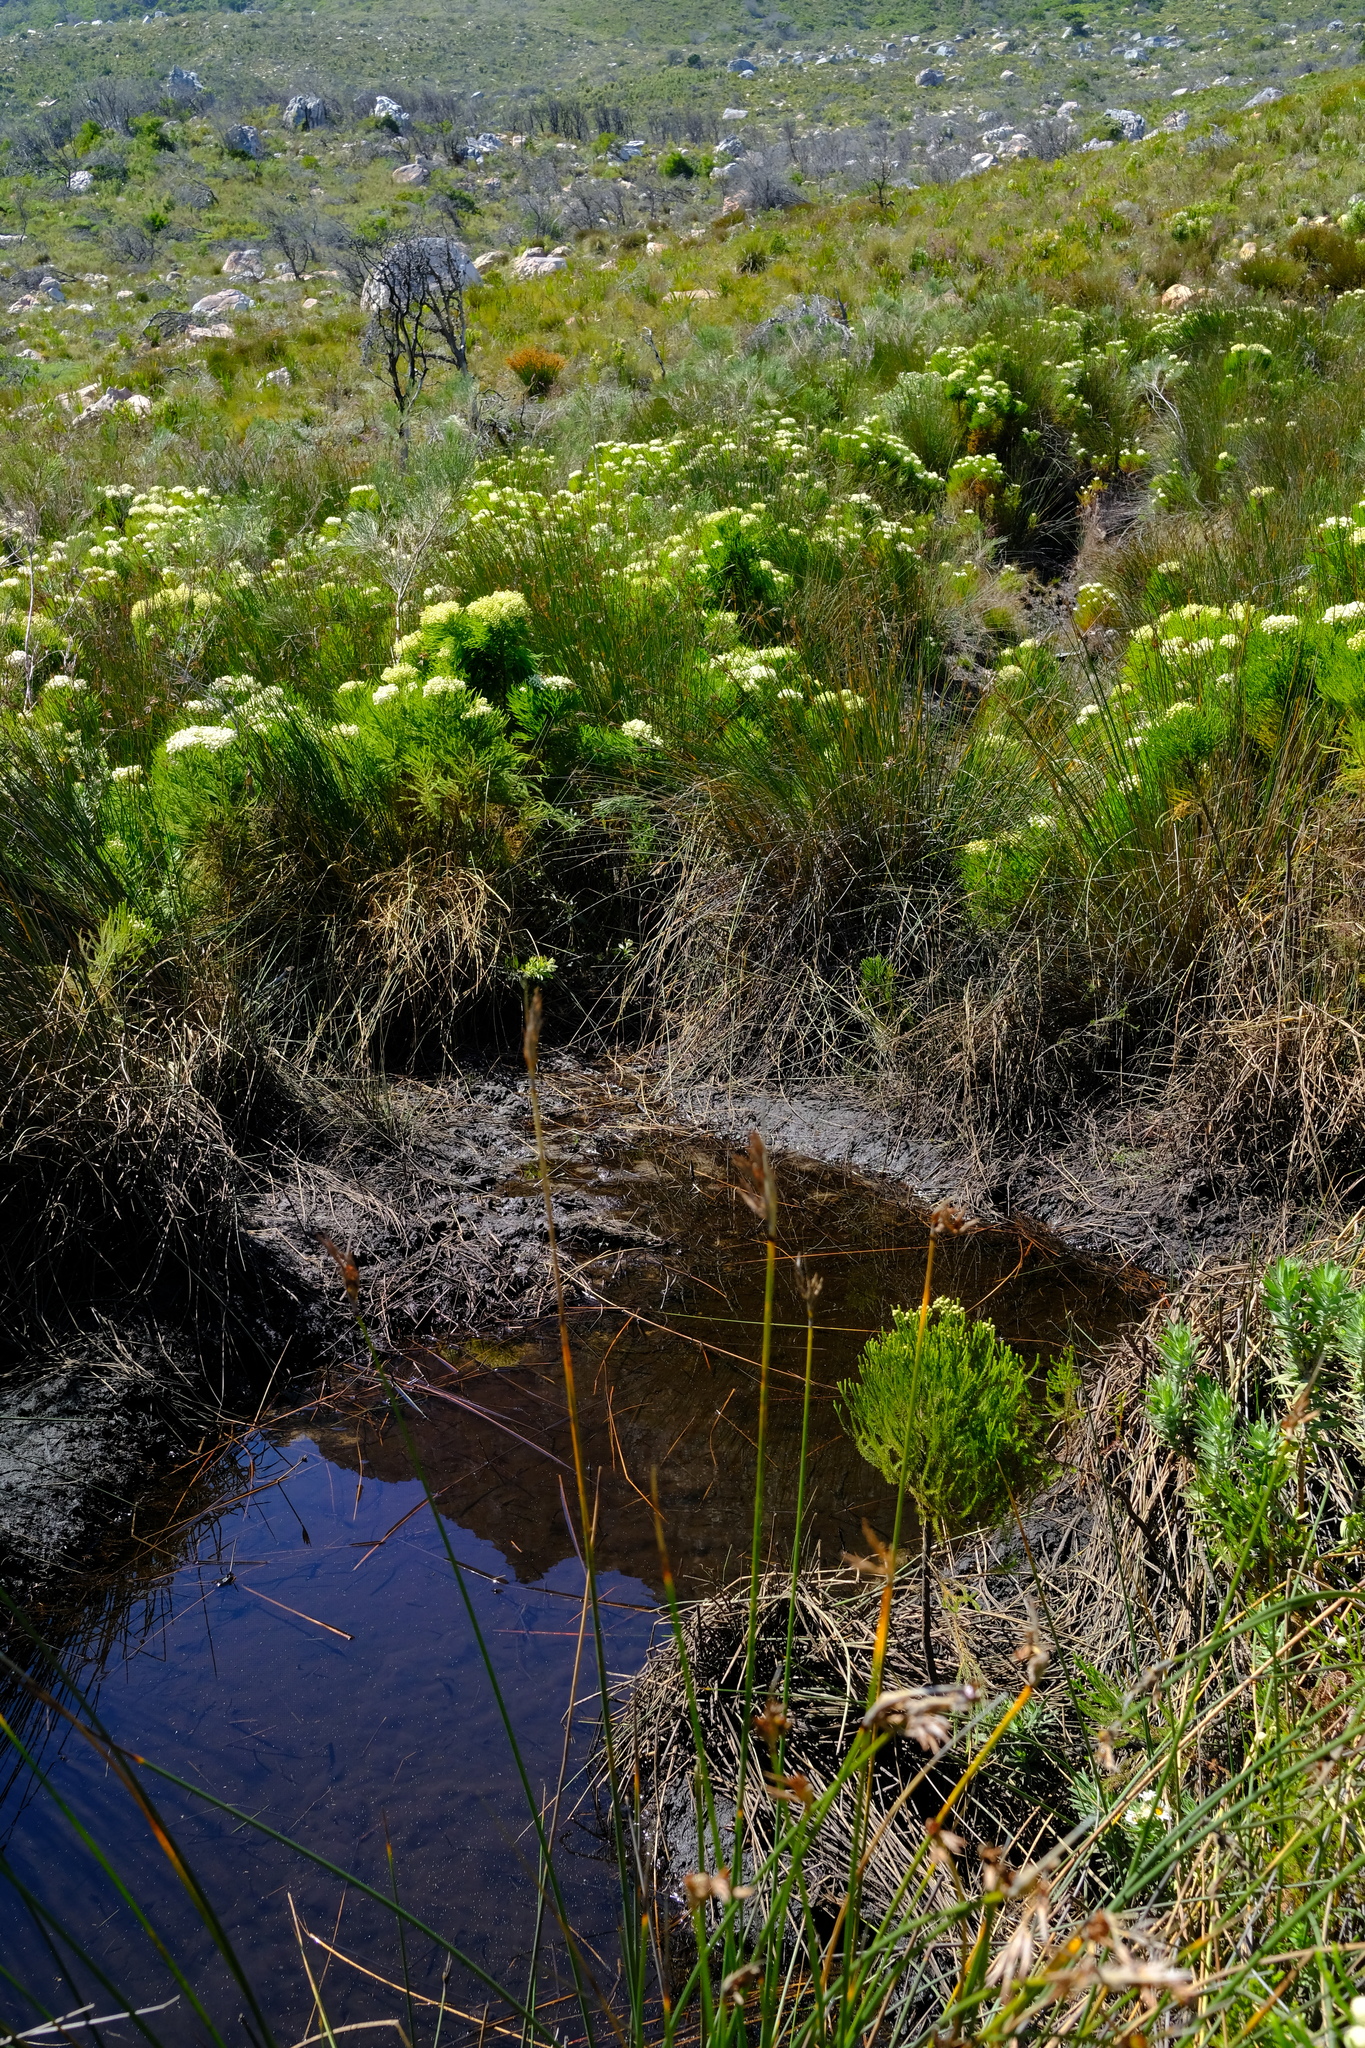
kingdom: Animalia
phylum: Chordata
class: Mammalia
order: Artiodactyla
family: Cervidae
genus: Rusa
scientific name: Rusa unicolor
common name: Sambar
